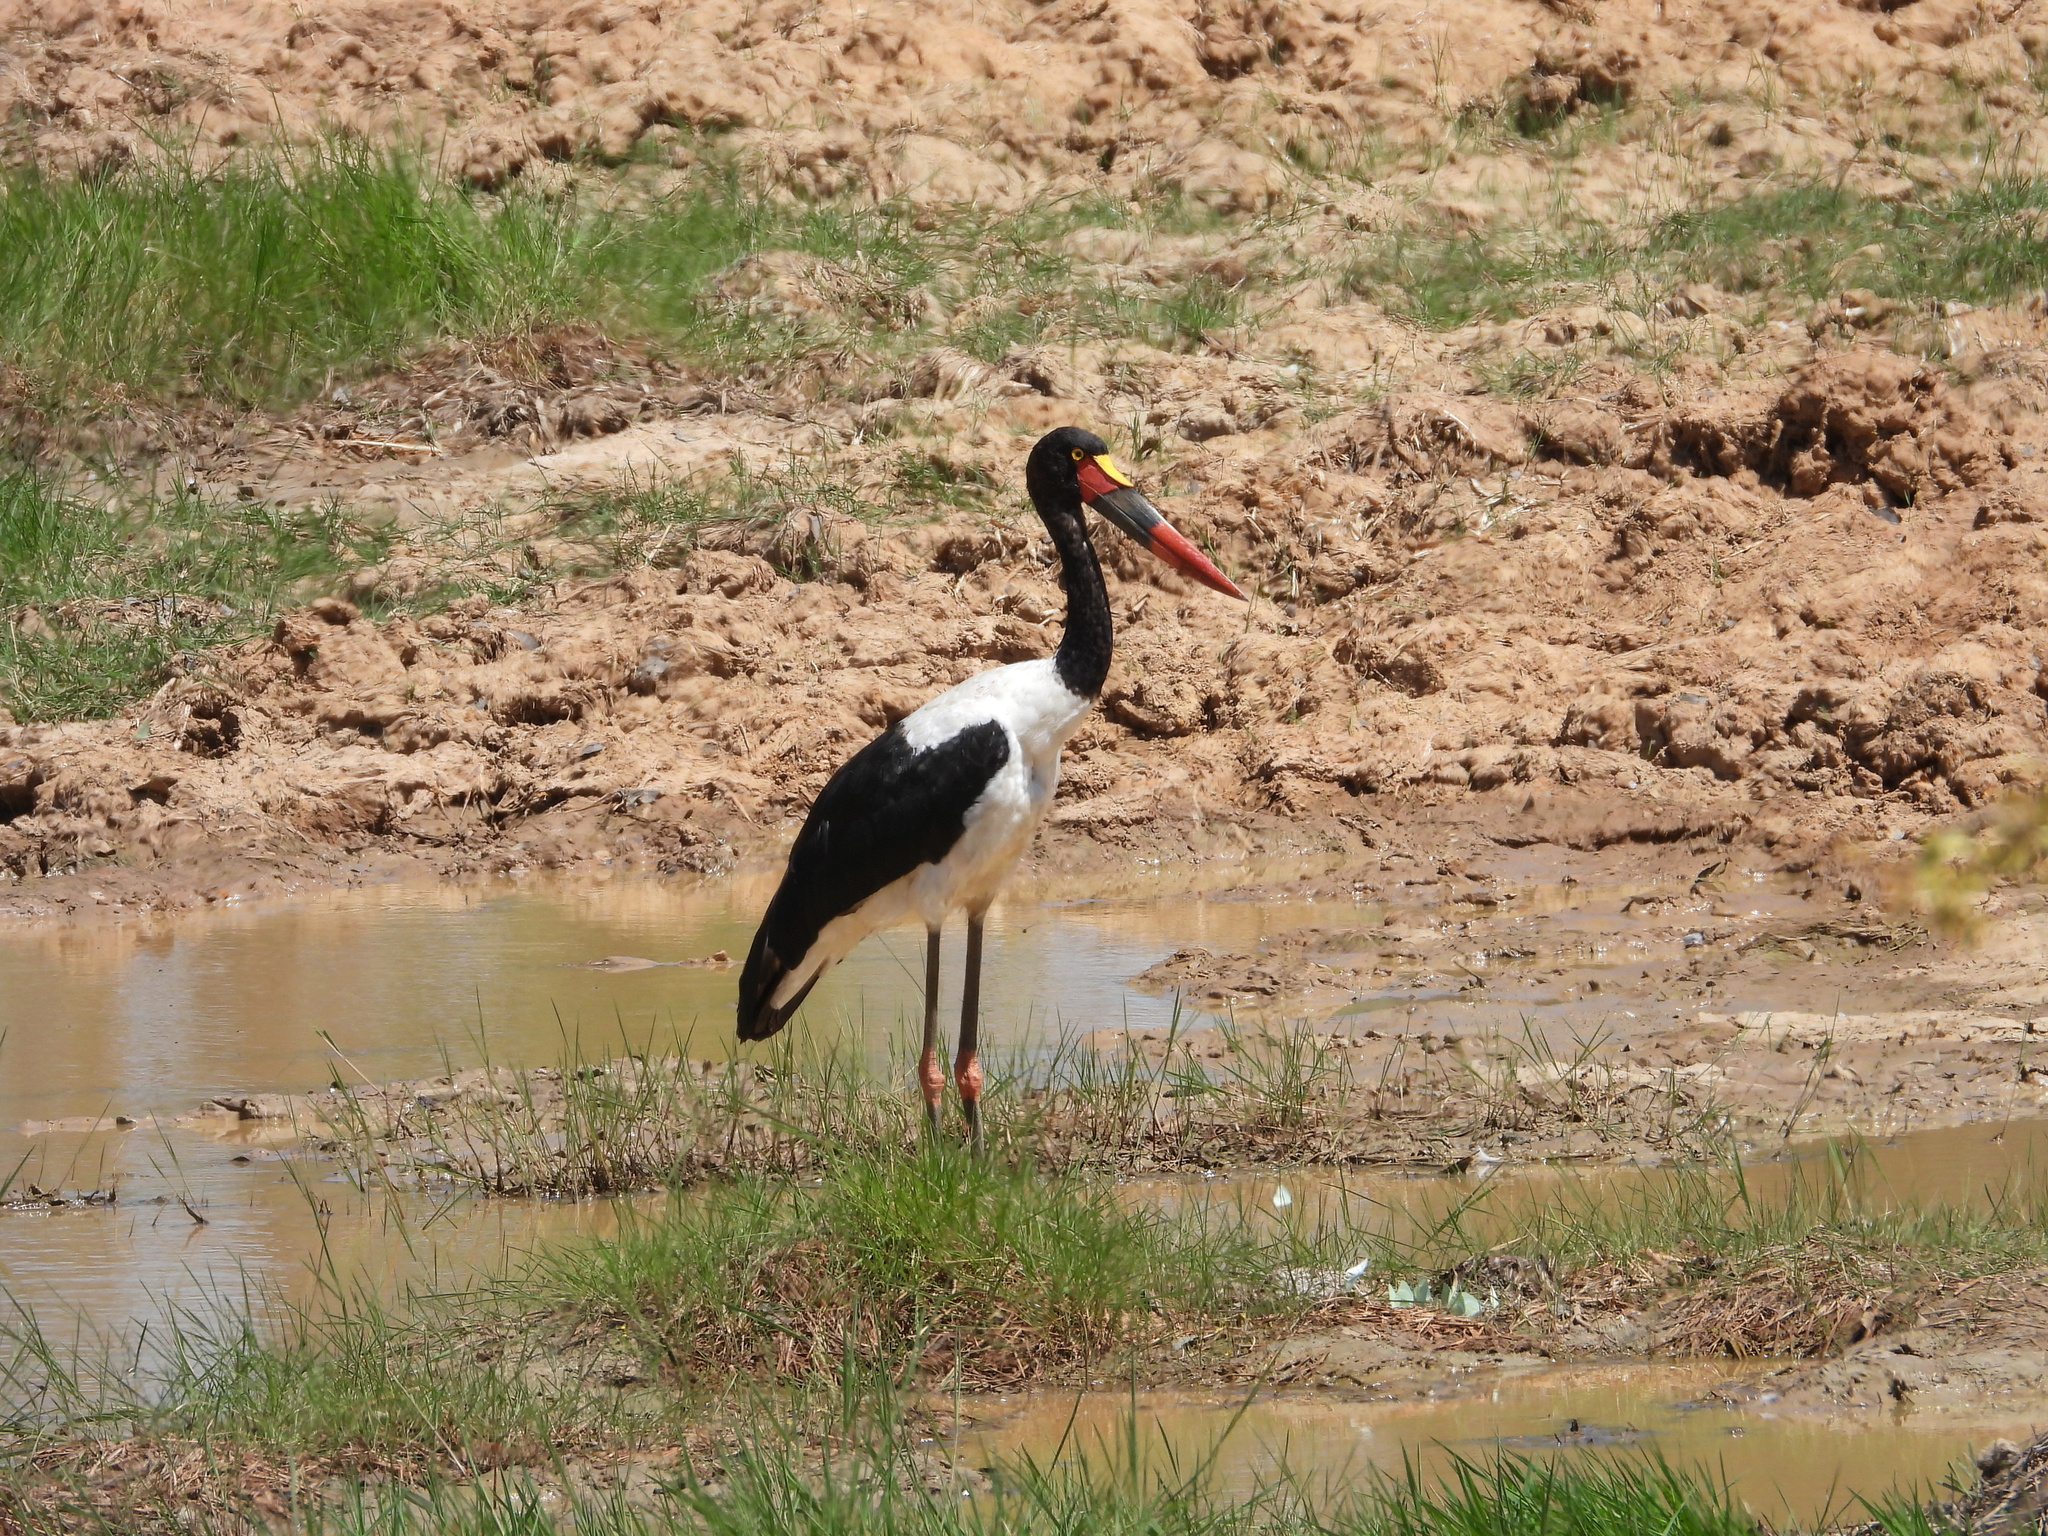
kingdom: Animalia
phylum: Chordata
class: Aves
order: Ciconiiformes
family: Ciconiidae
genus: Ephippiorhynchus
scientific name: Ephippiorhynchus senegalensis
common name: Saddle-billed stork
